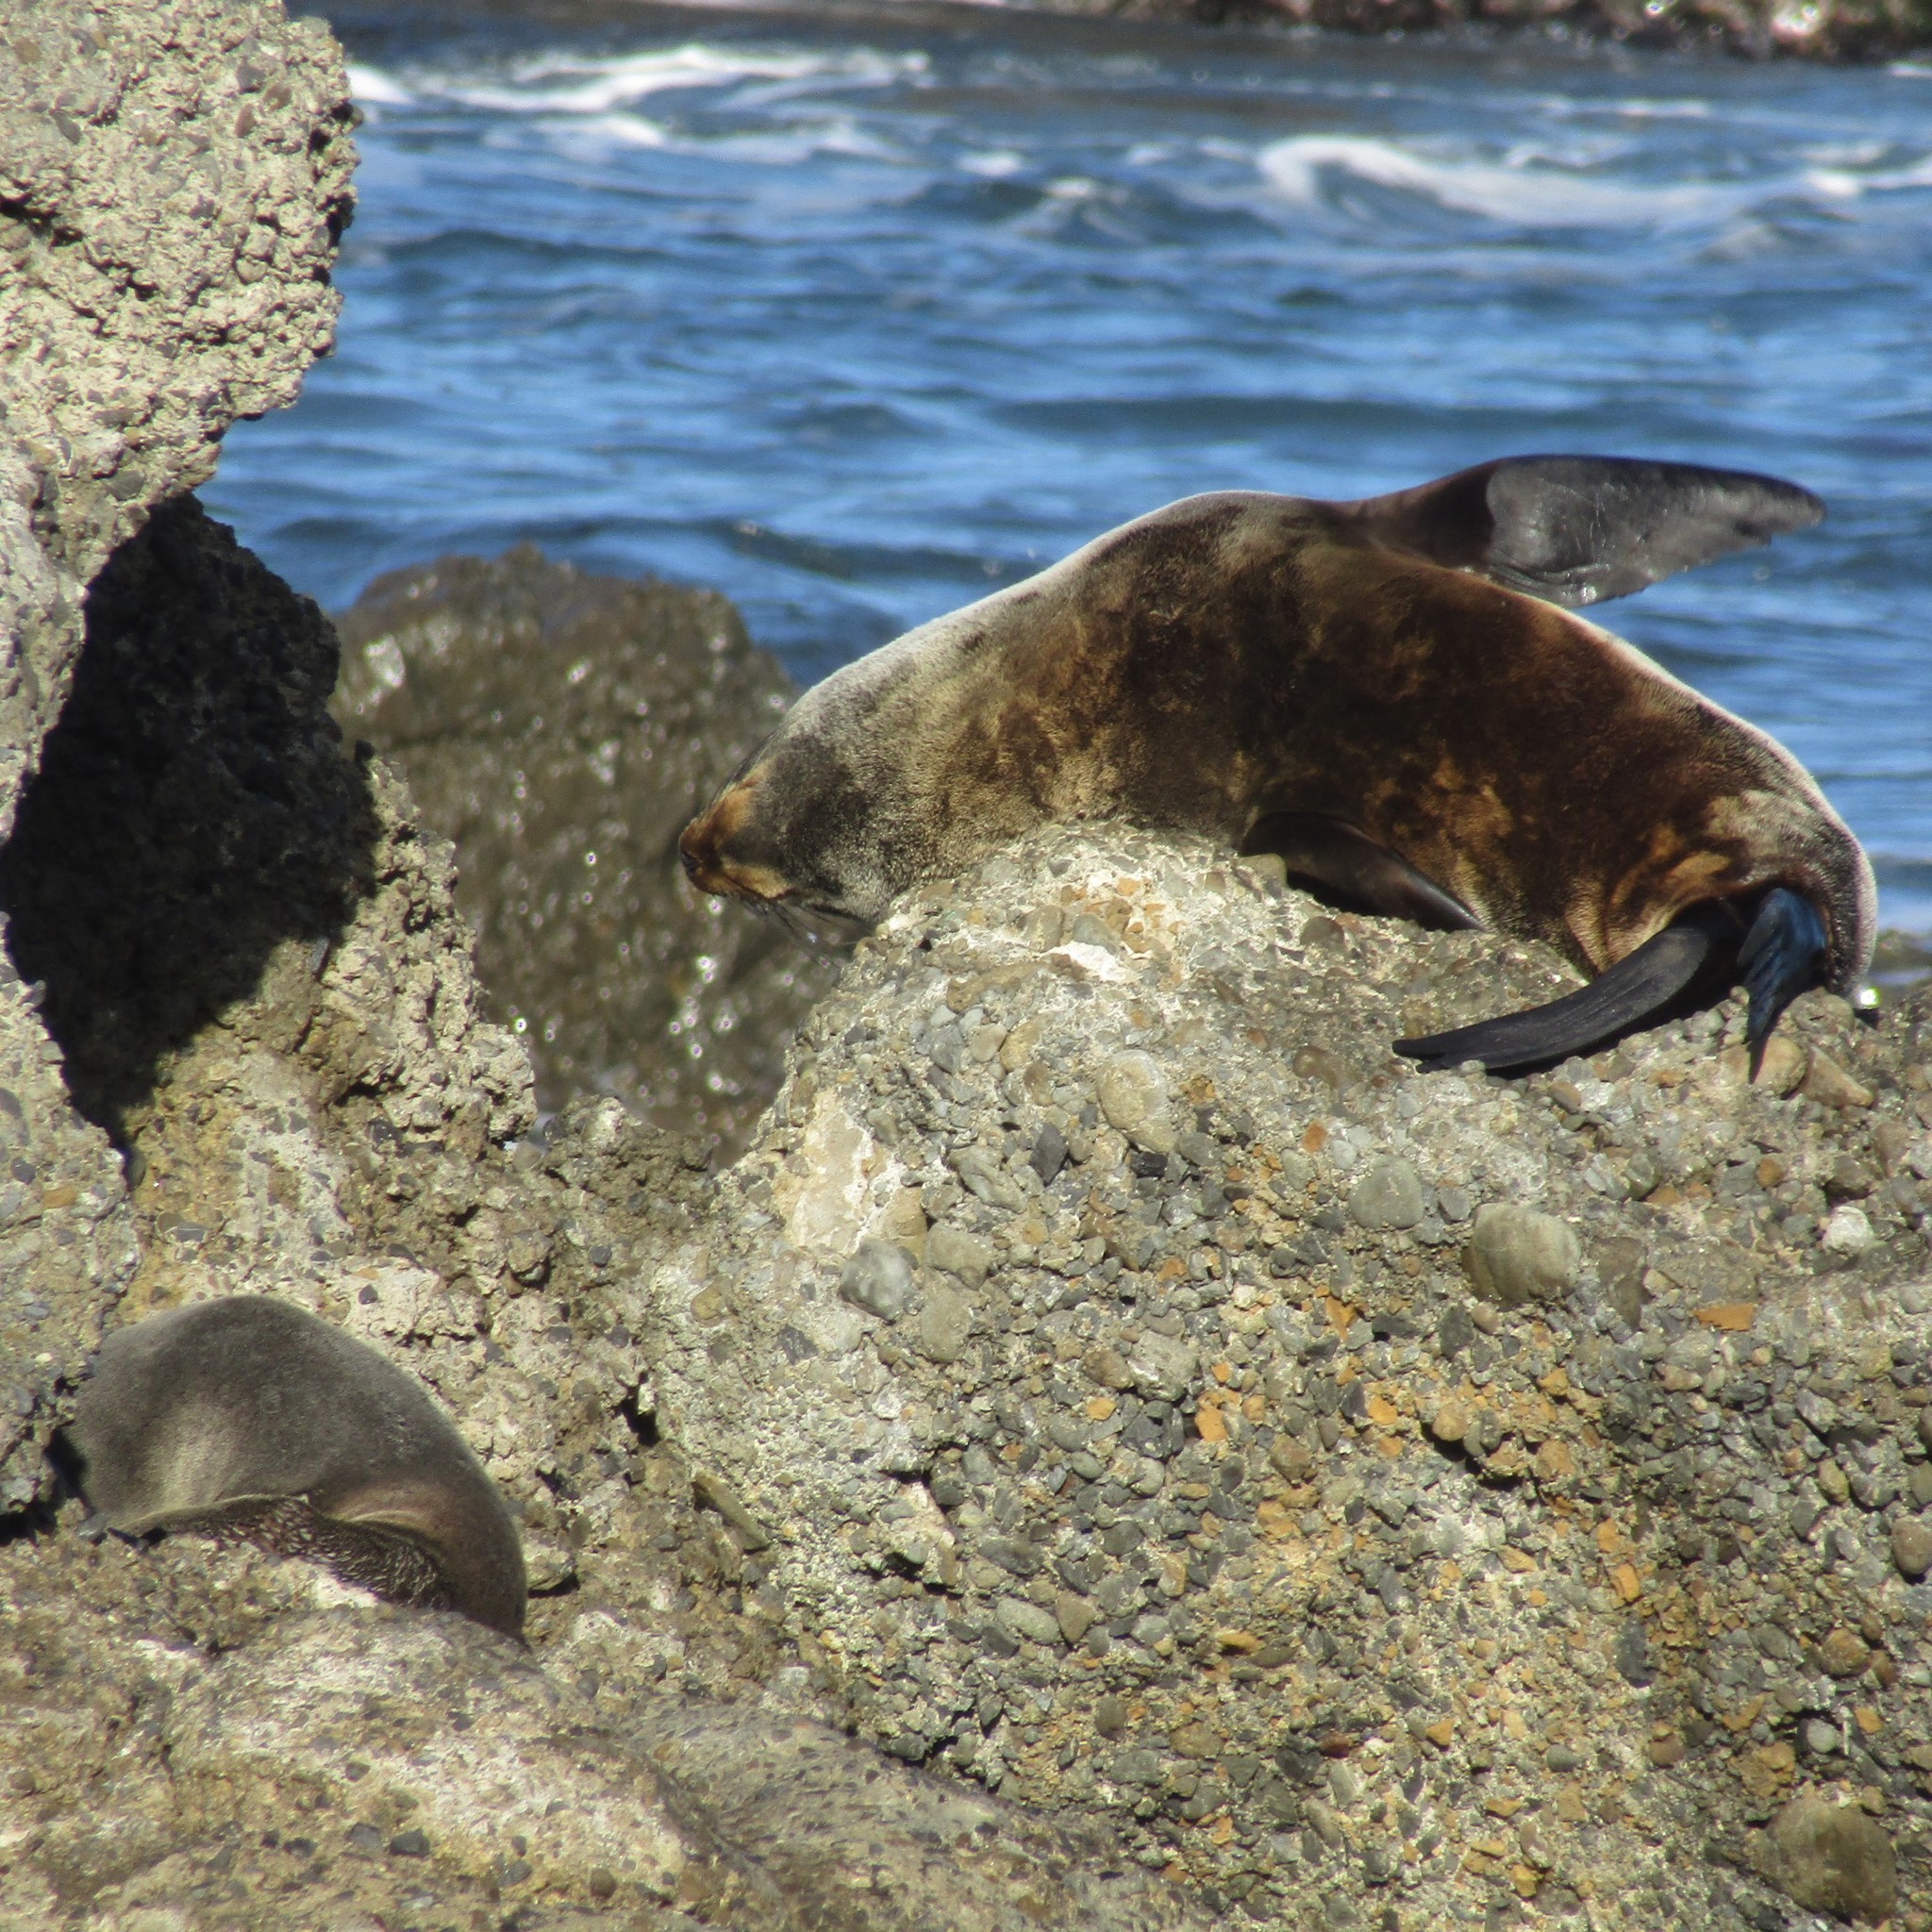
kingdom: Animalia
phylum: Chordata
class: Mammalia
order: Carnivora
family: Otariidae
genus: Arctocephalus
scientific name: Arctocephalus forsteri
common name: New zealand fur seal
